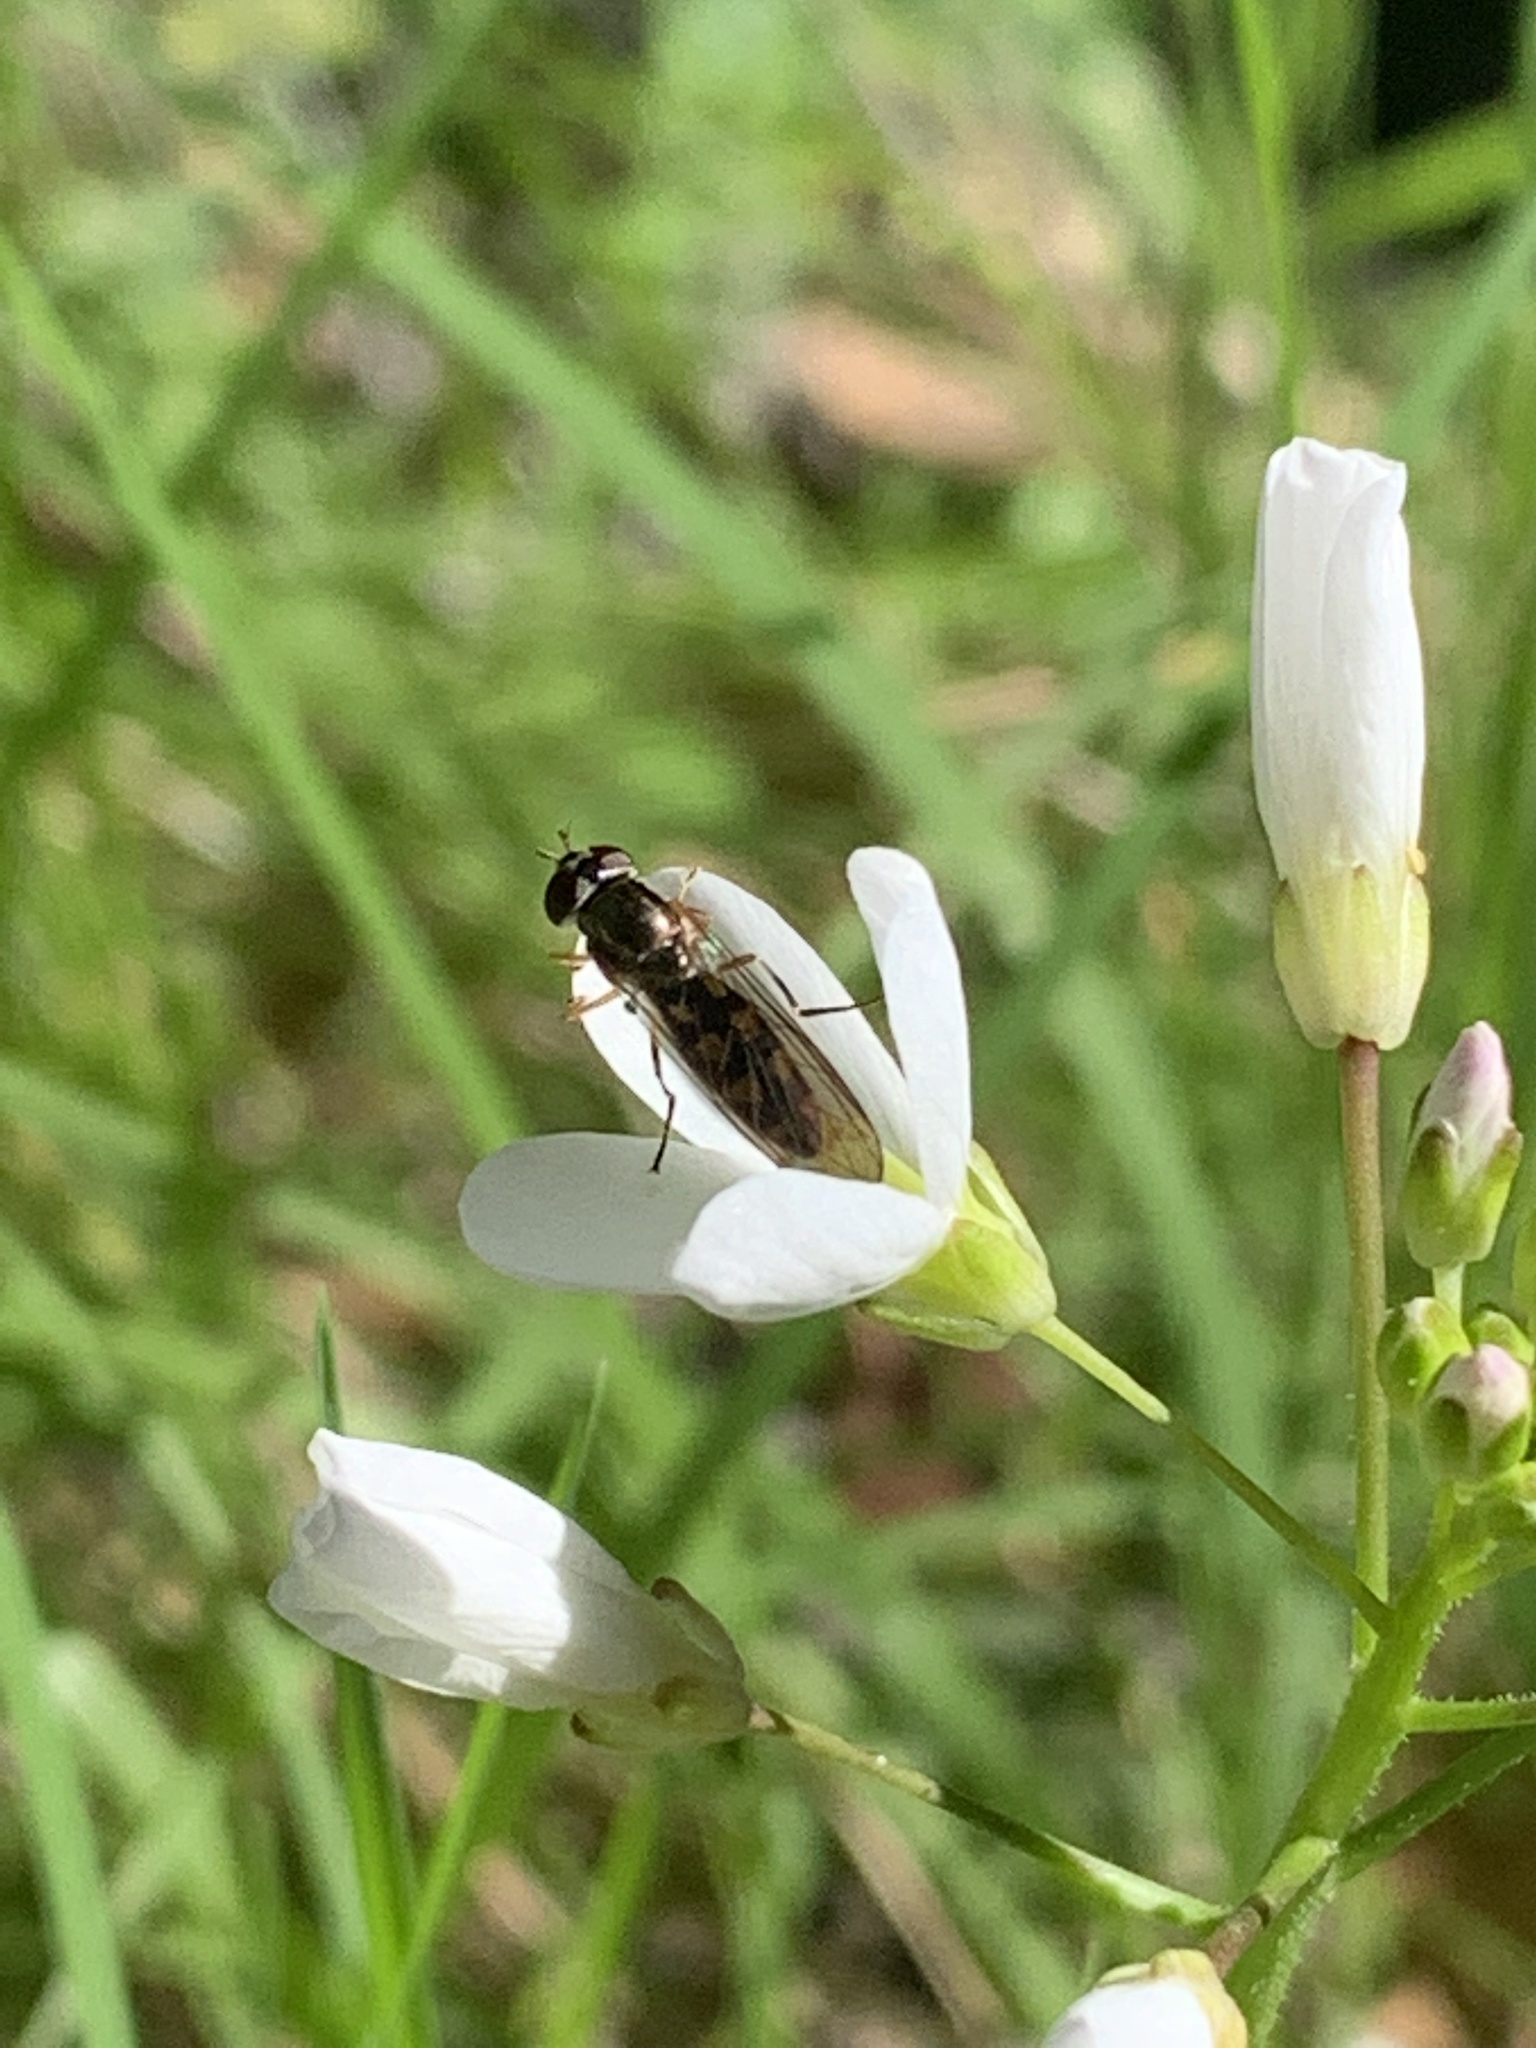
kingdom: Animalia
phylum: Arthropoda
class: Insecta
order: Diptera
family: Syrphidae
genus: Melanostoma
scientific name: Melanostoma mellina
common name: Hover fly
